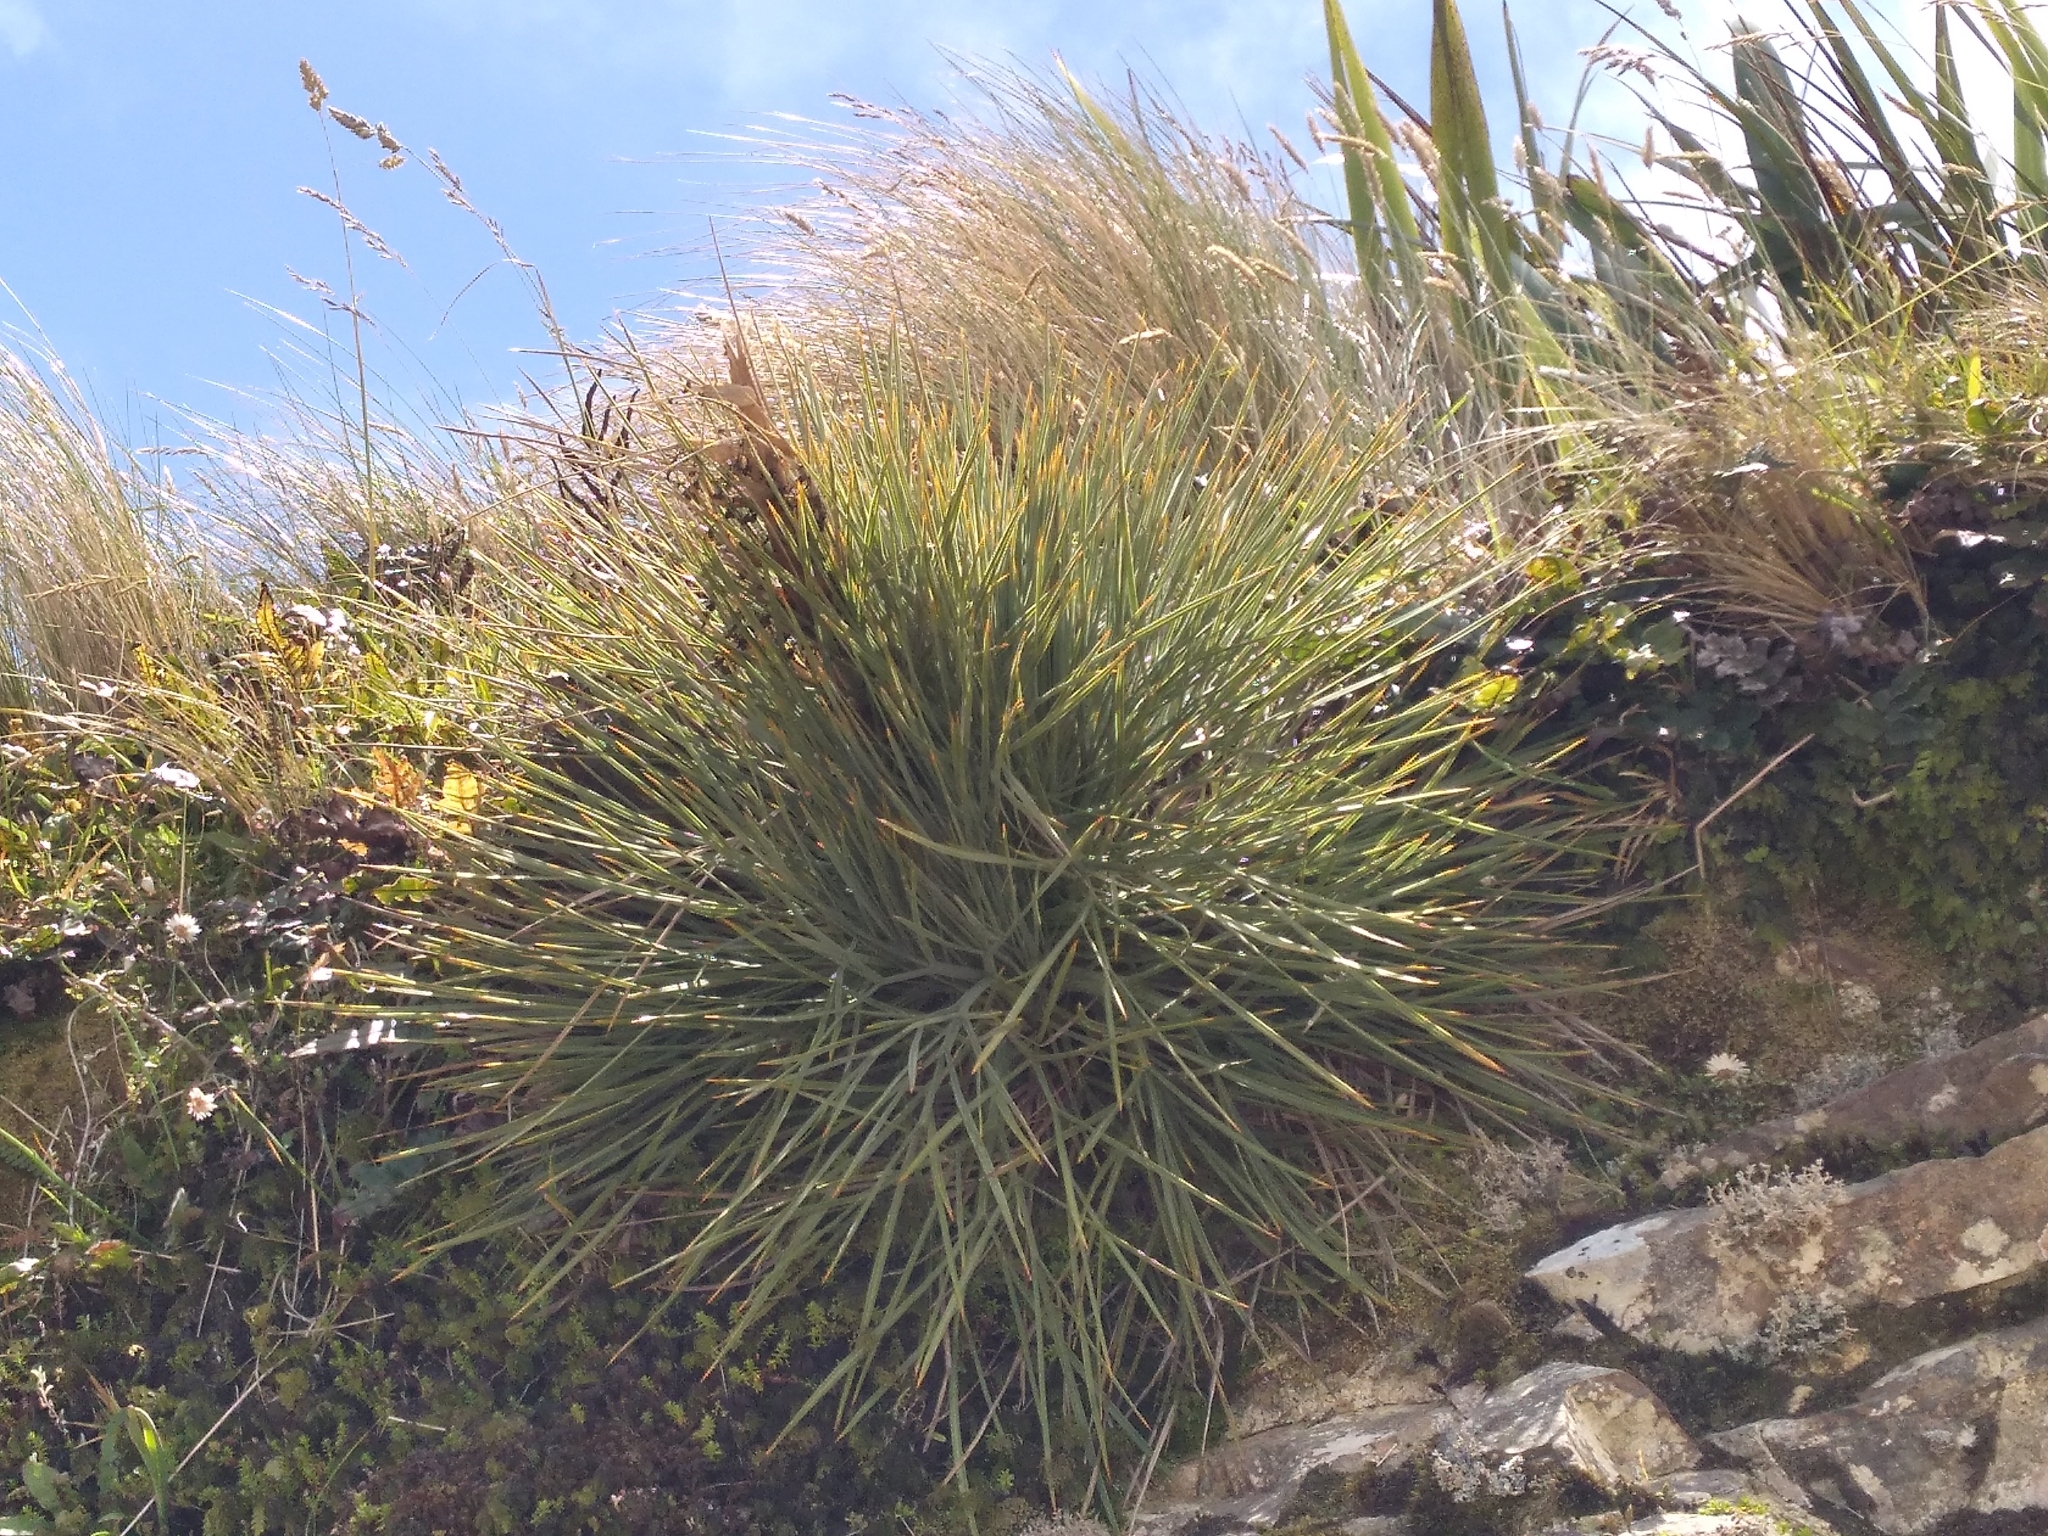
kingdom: Plantae
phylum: Tracheophyta
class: Magnoliopsida
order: Apiales
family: Apiaceae
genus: Aciphylla
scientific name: Aciphylla squarrosa
